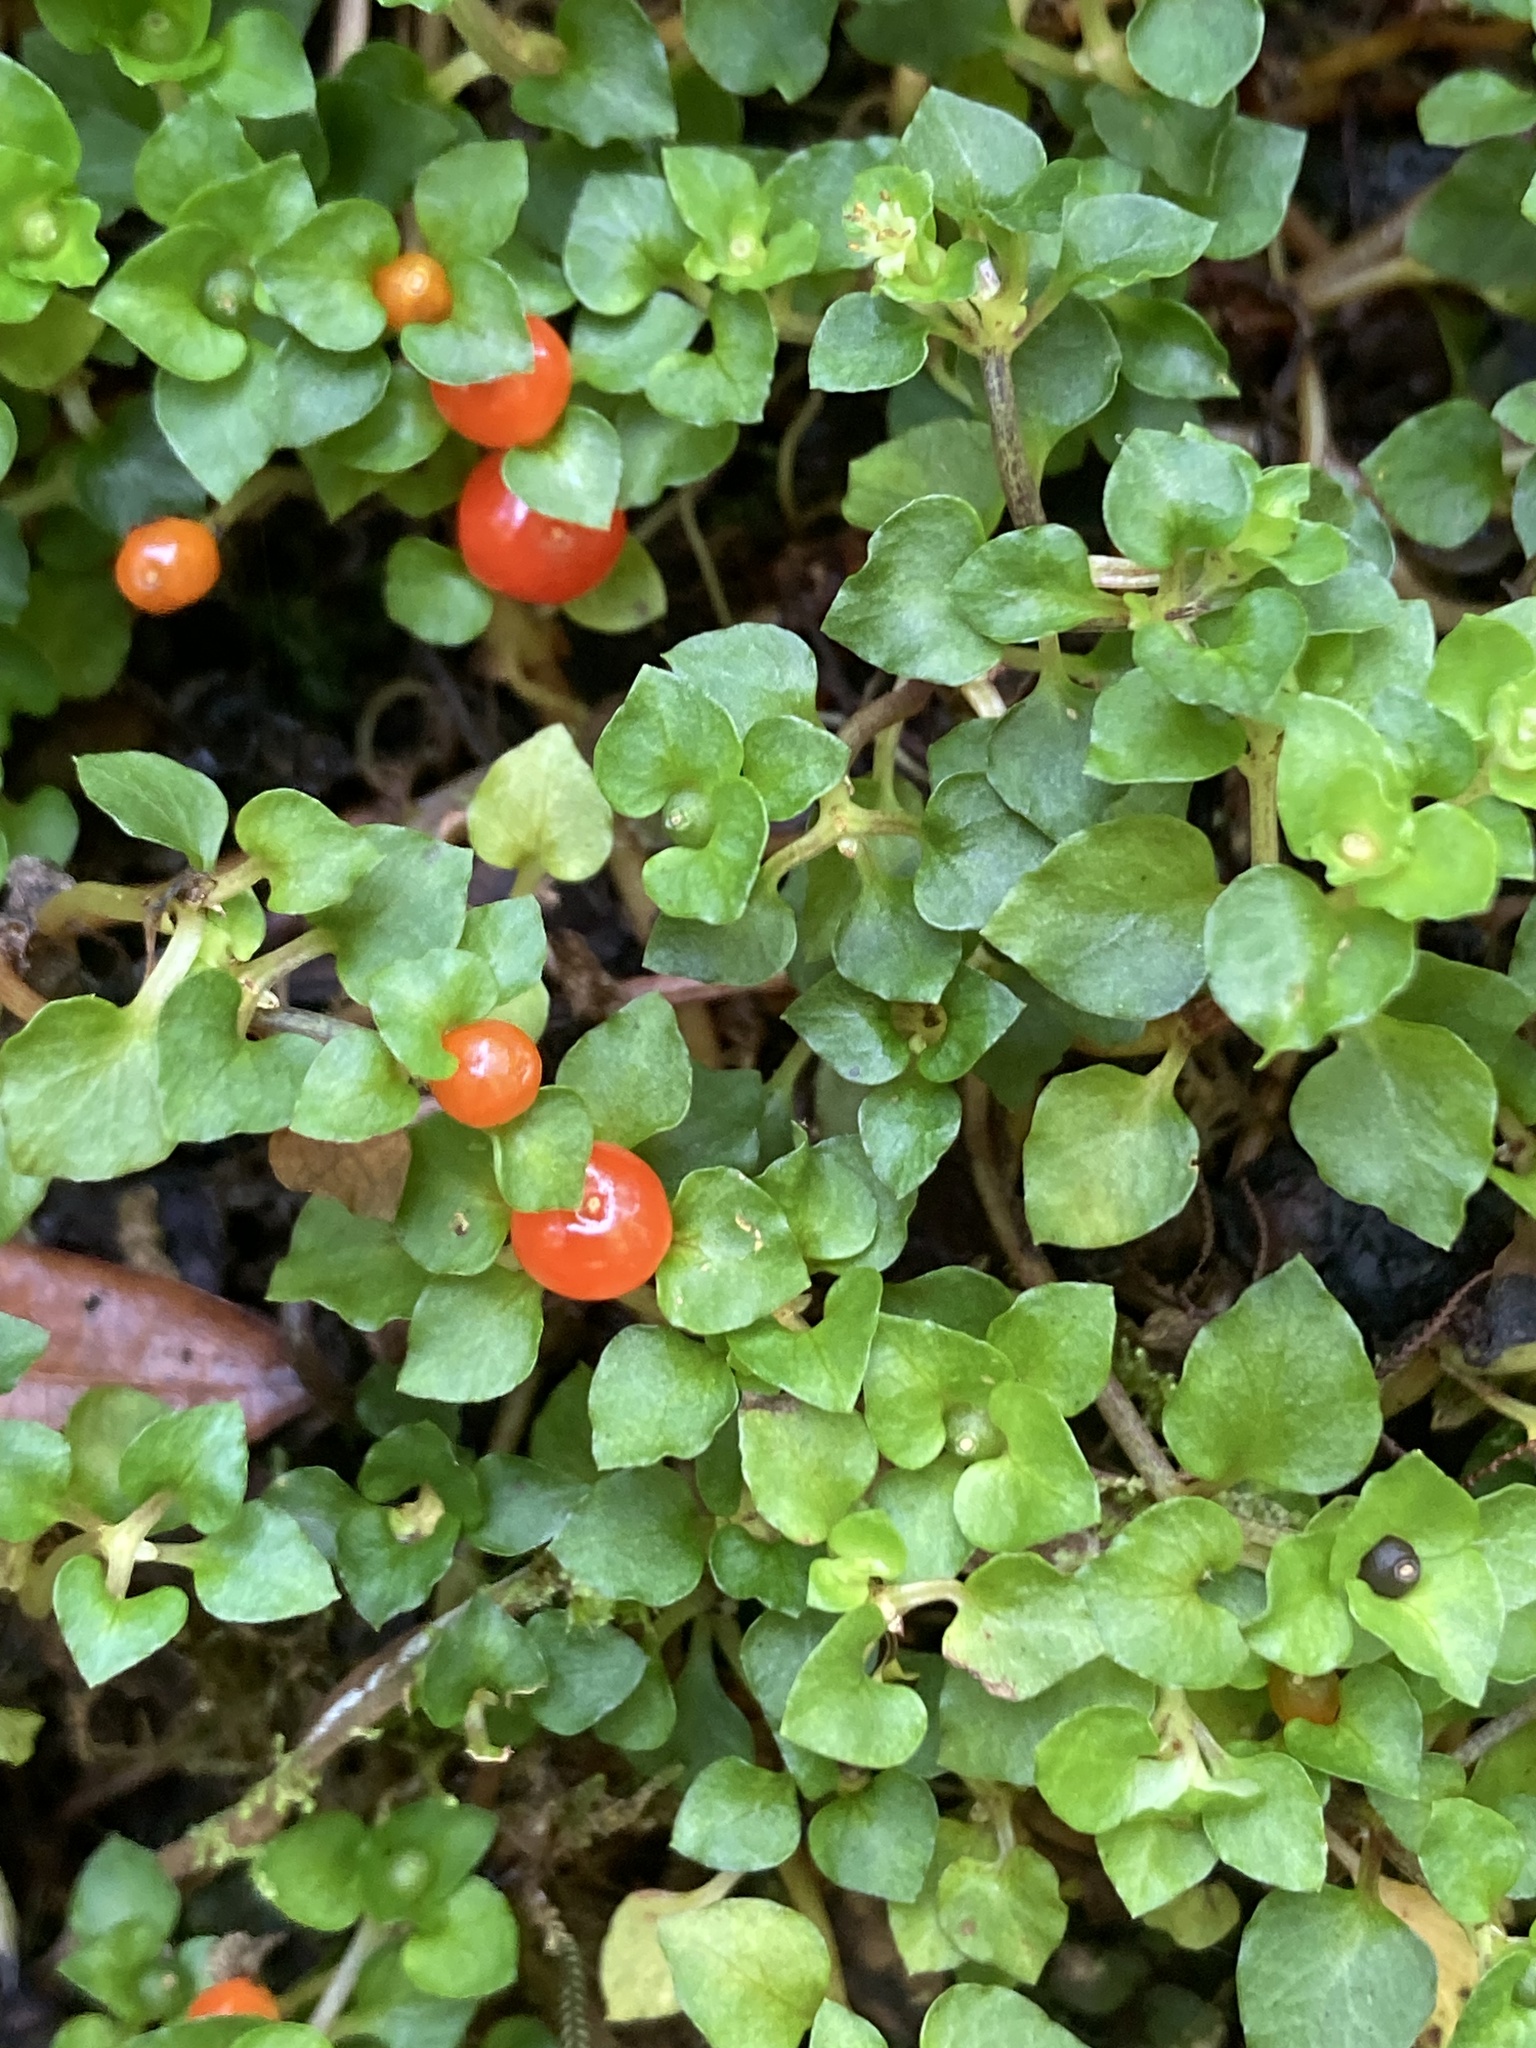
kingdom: Plantae
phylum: Tracheophyta
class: Magnoliopsida
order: Gentianales
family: Rubiaceae
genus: Nertera
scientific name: Nertera granadensis
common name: Beadplant
